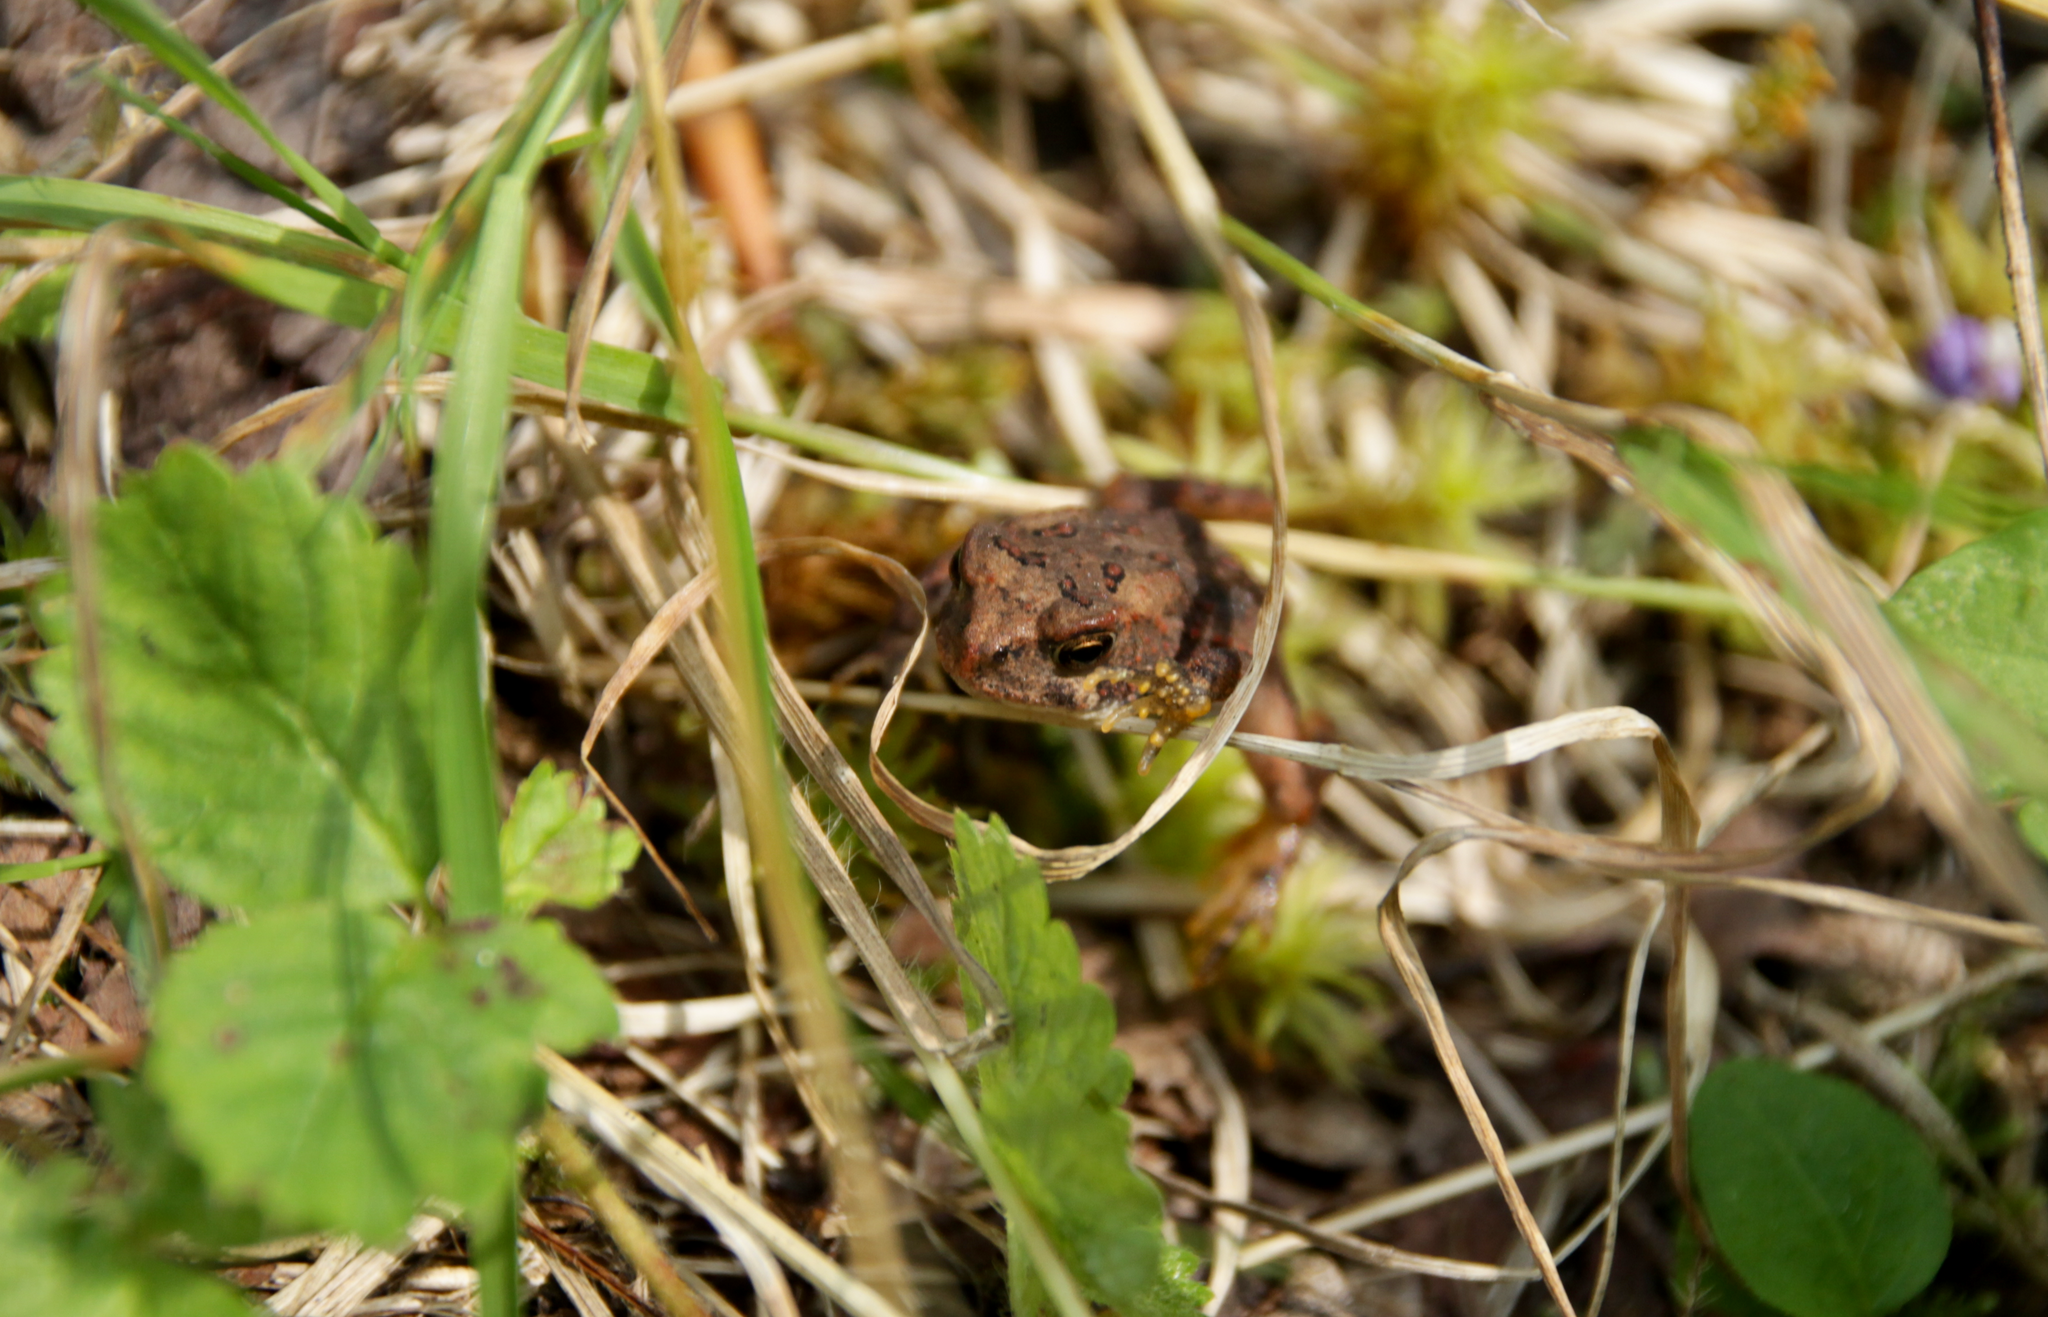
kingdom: Animalia
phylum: Chordata
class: Amphibia
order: Anura
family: Bufonidae
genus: Anaxyrus
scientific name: Anaxyrus americanus
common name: American toad
